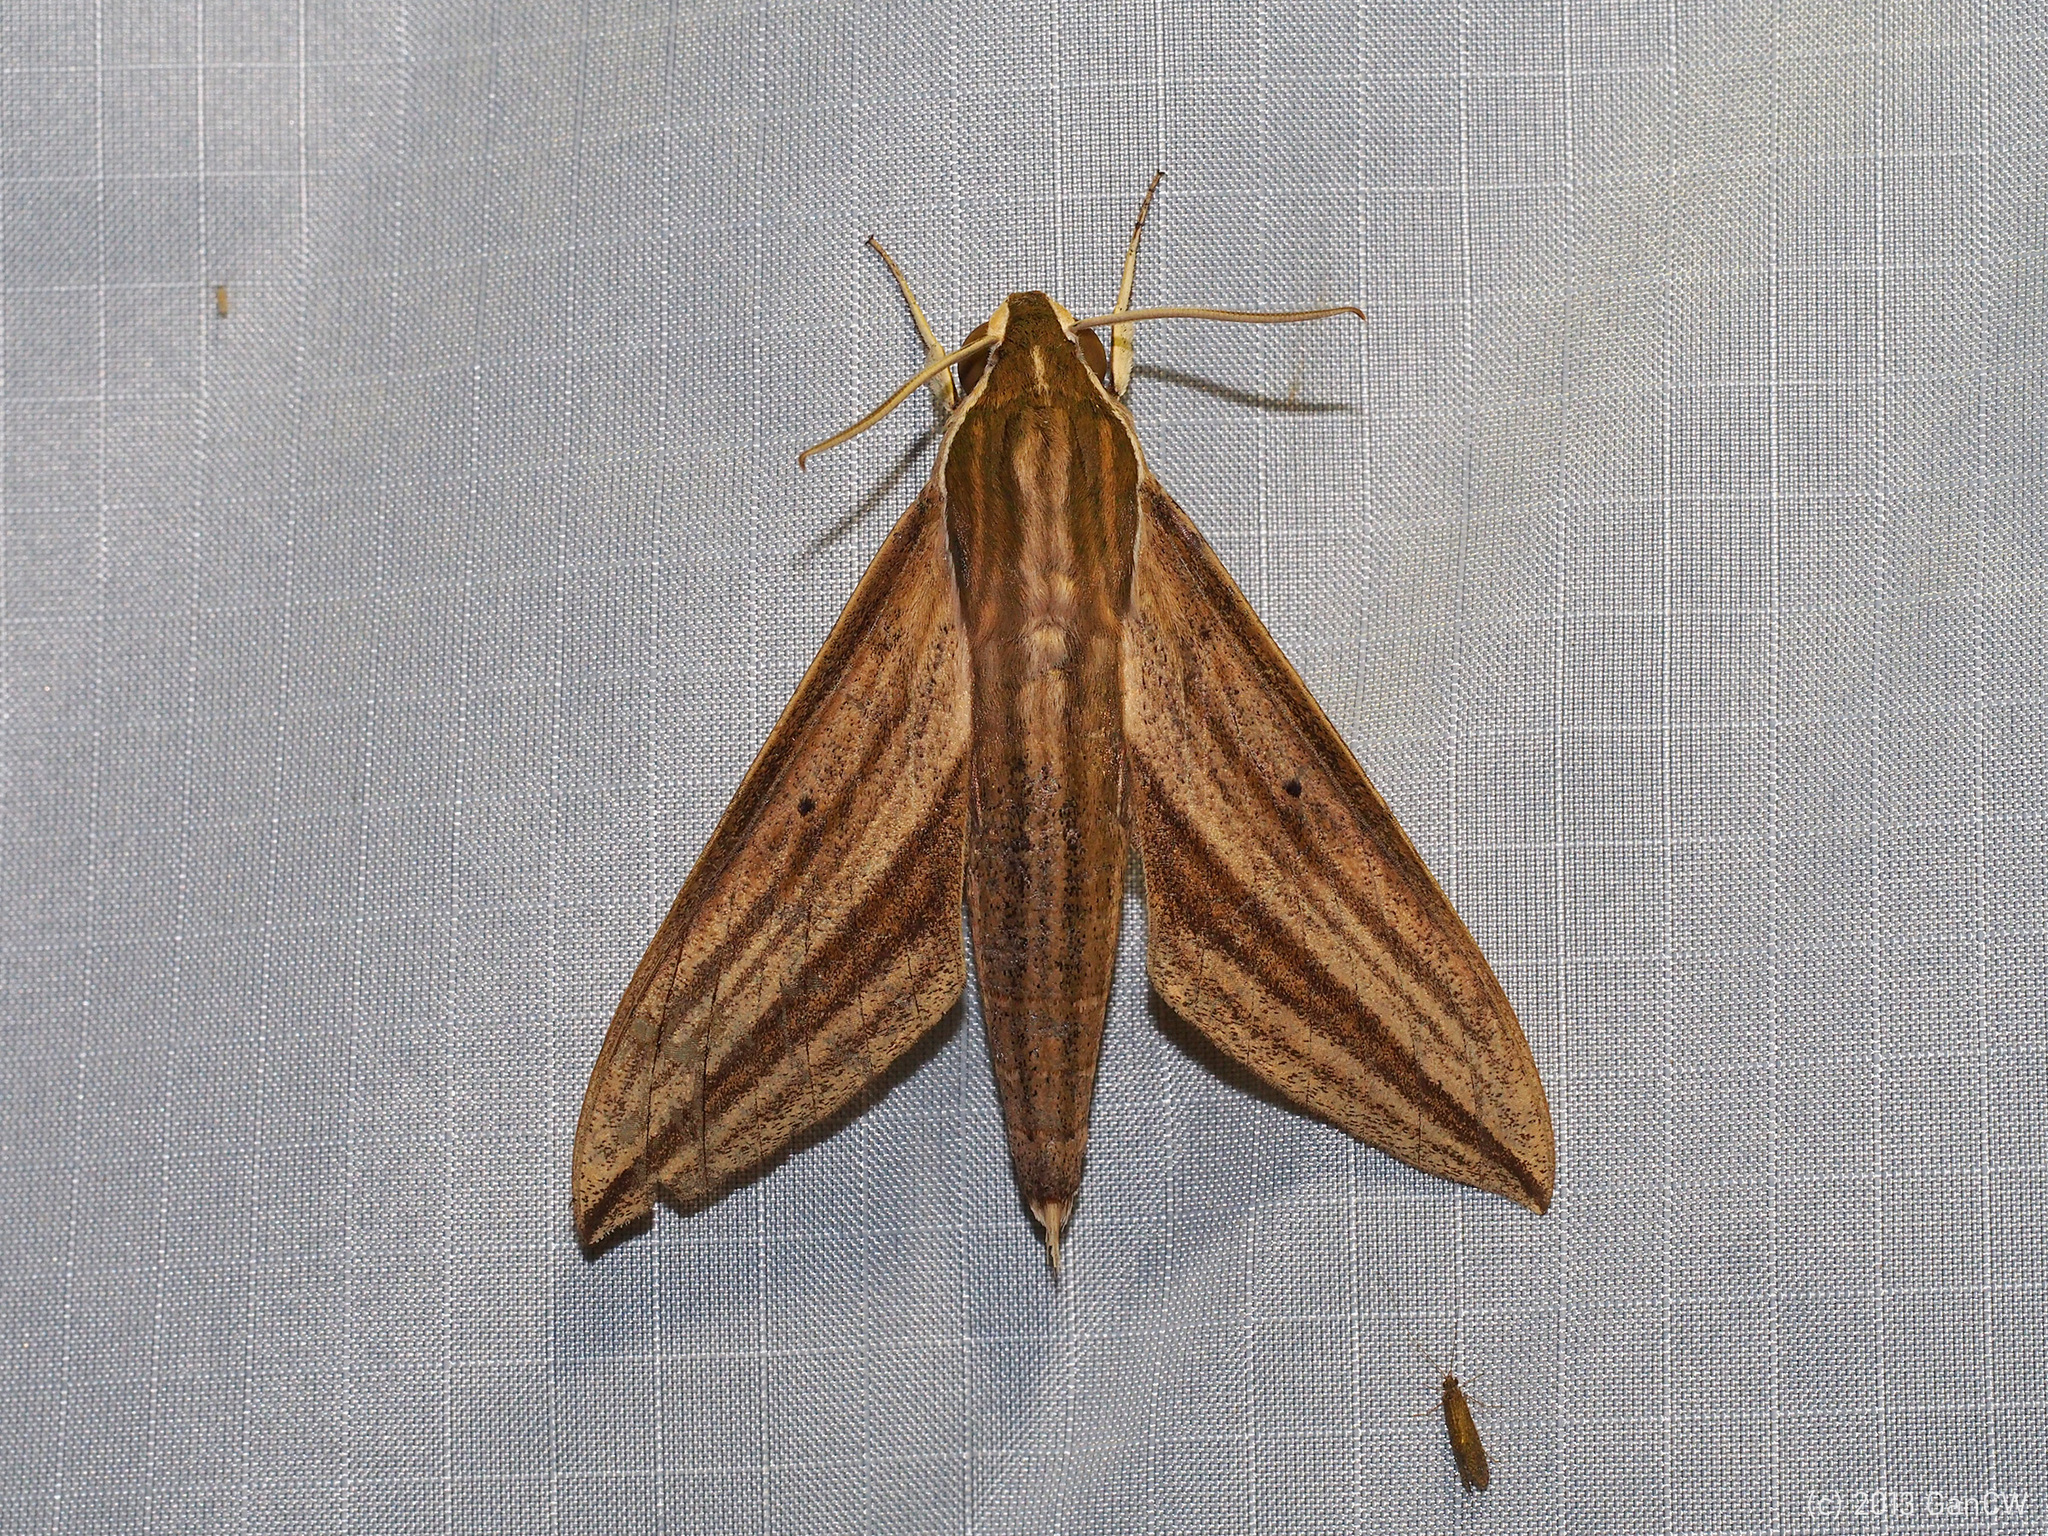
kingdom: Animalia
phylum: Arthropoda
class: Insecta
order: Lepidoptera
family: Sphingidae
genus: Theretra
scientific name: Theretra rhesus
